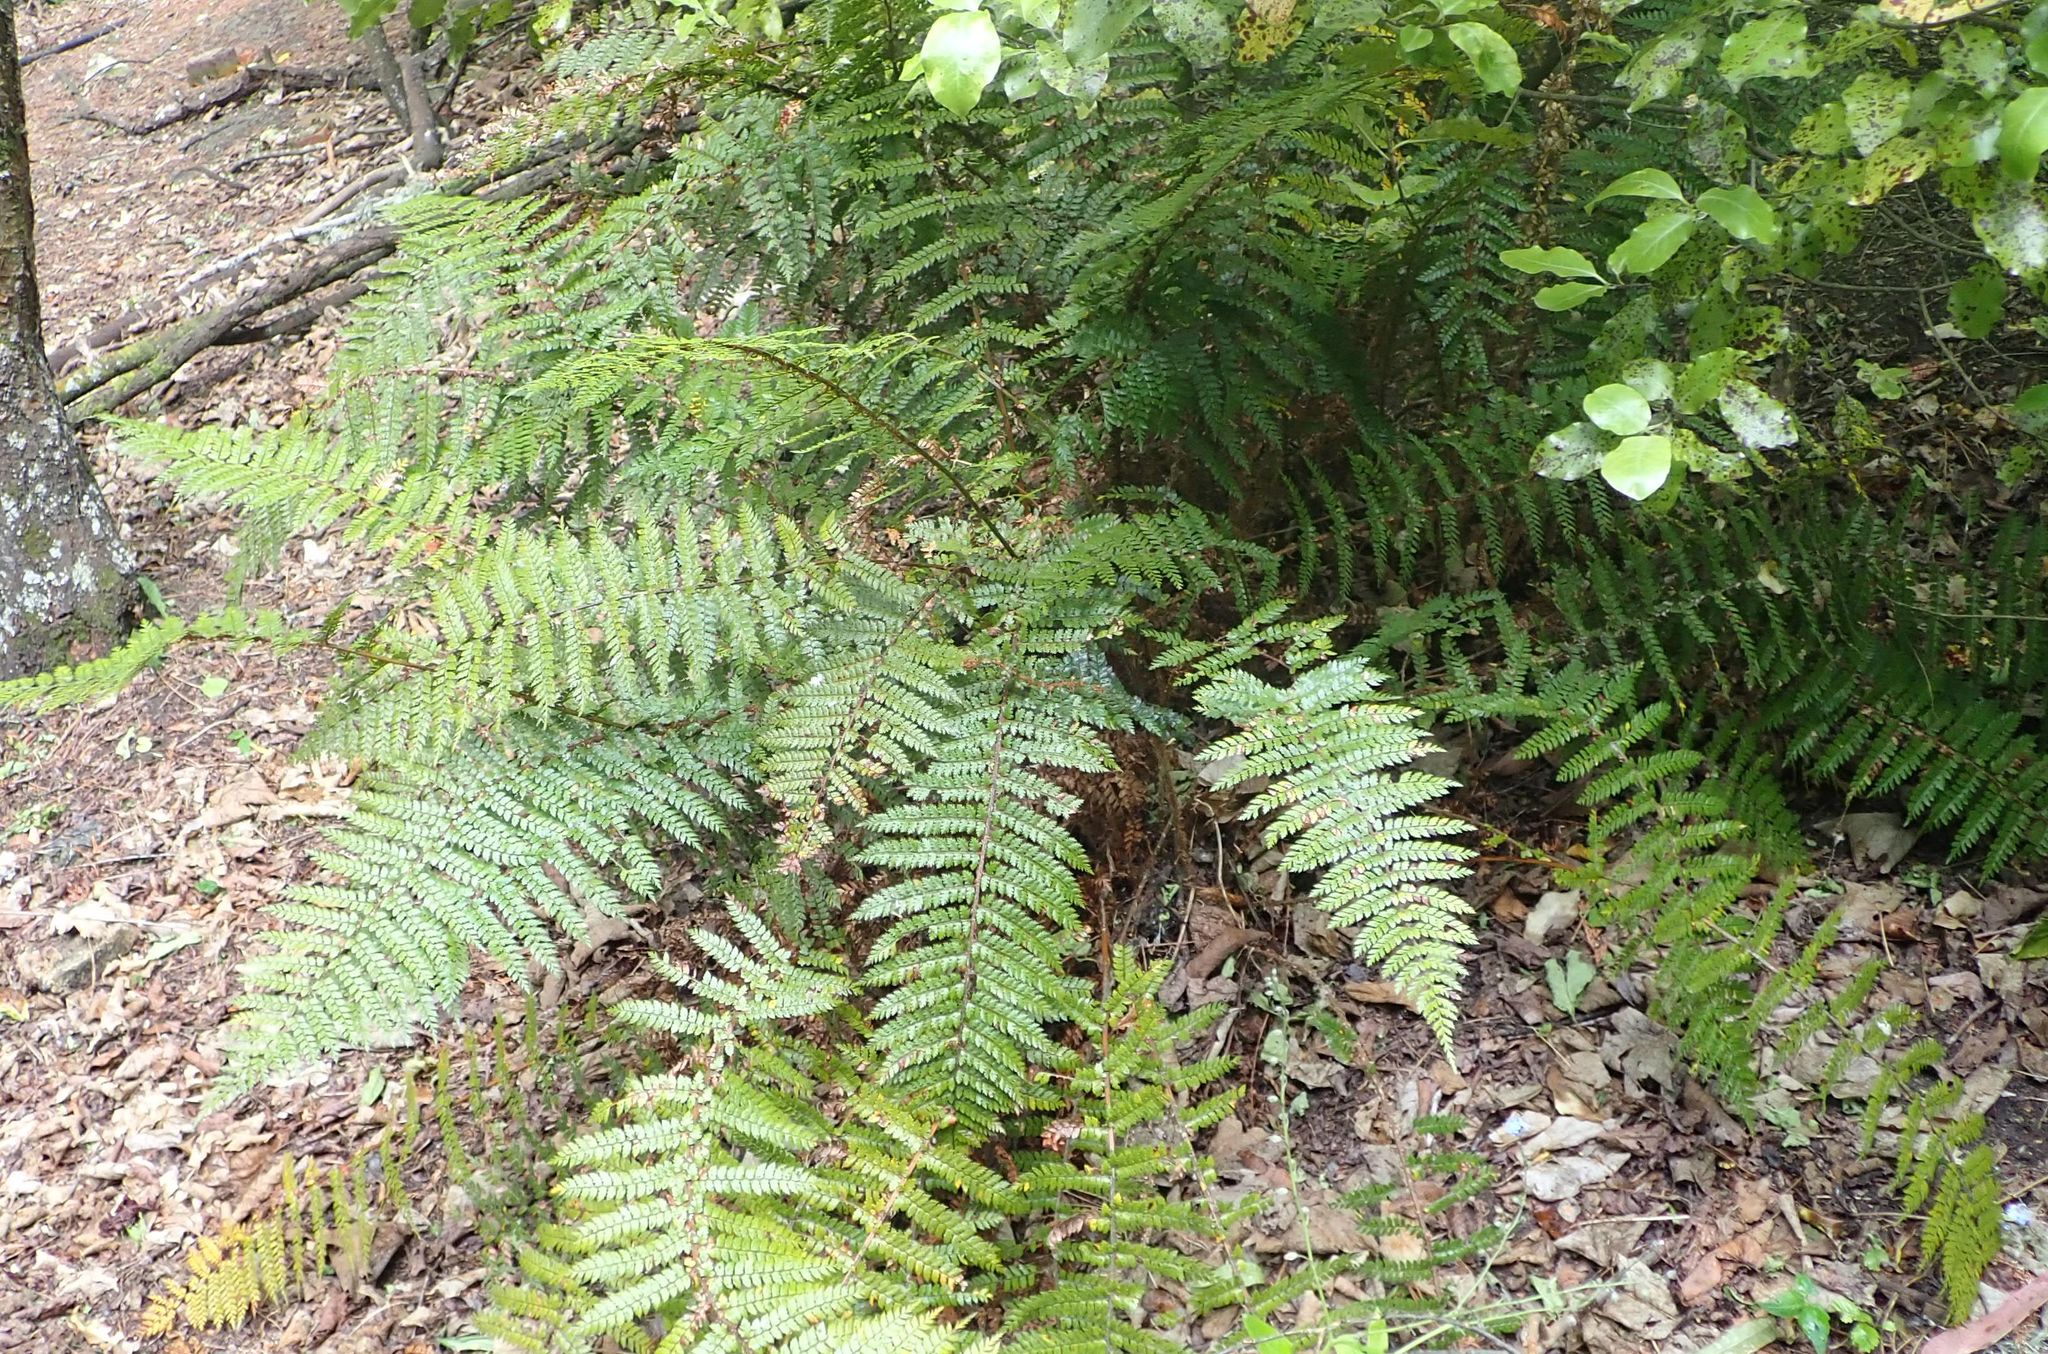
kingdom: Plantae
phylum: Tracheophyta
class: Polypodiopsida
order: Polypodiales
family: Dryopteridaceae
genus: Polystichum
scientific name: Polystichum vestitum
